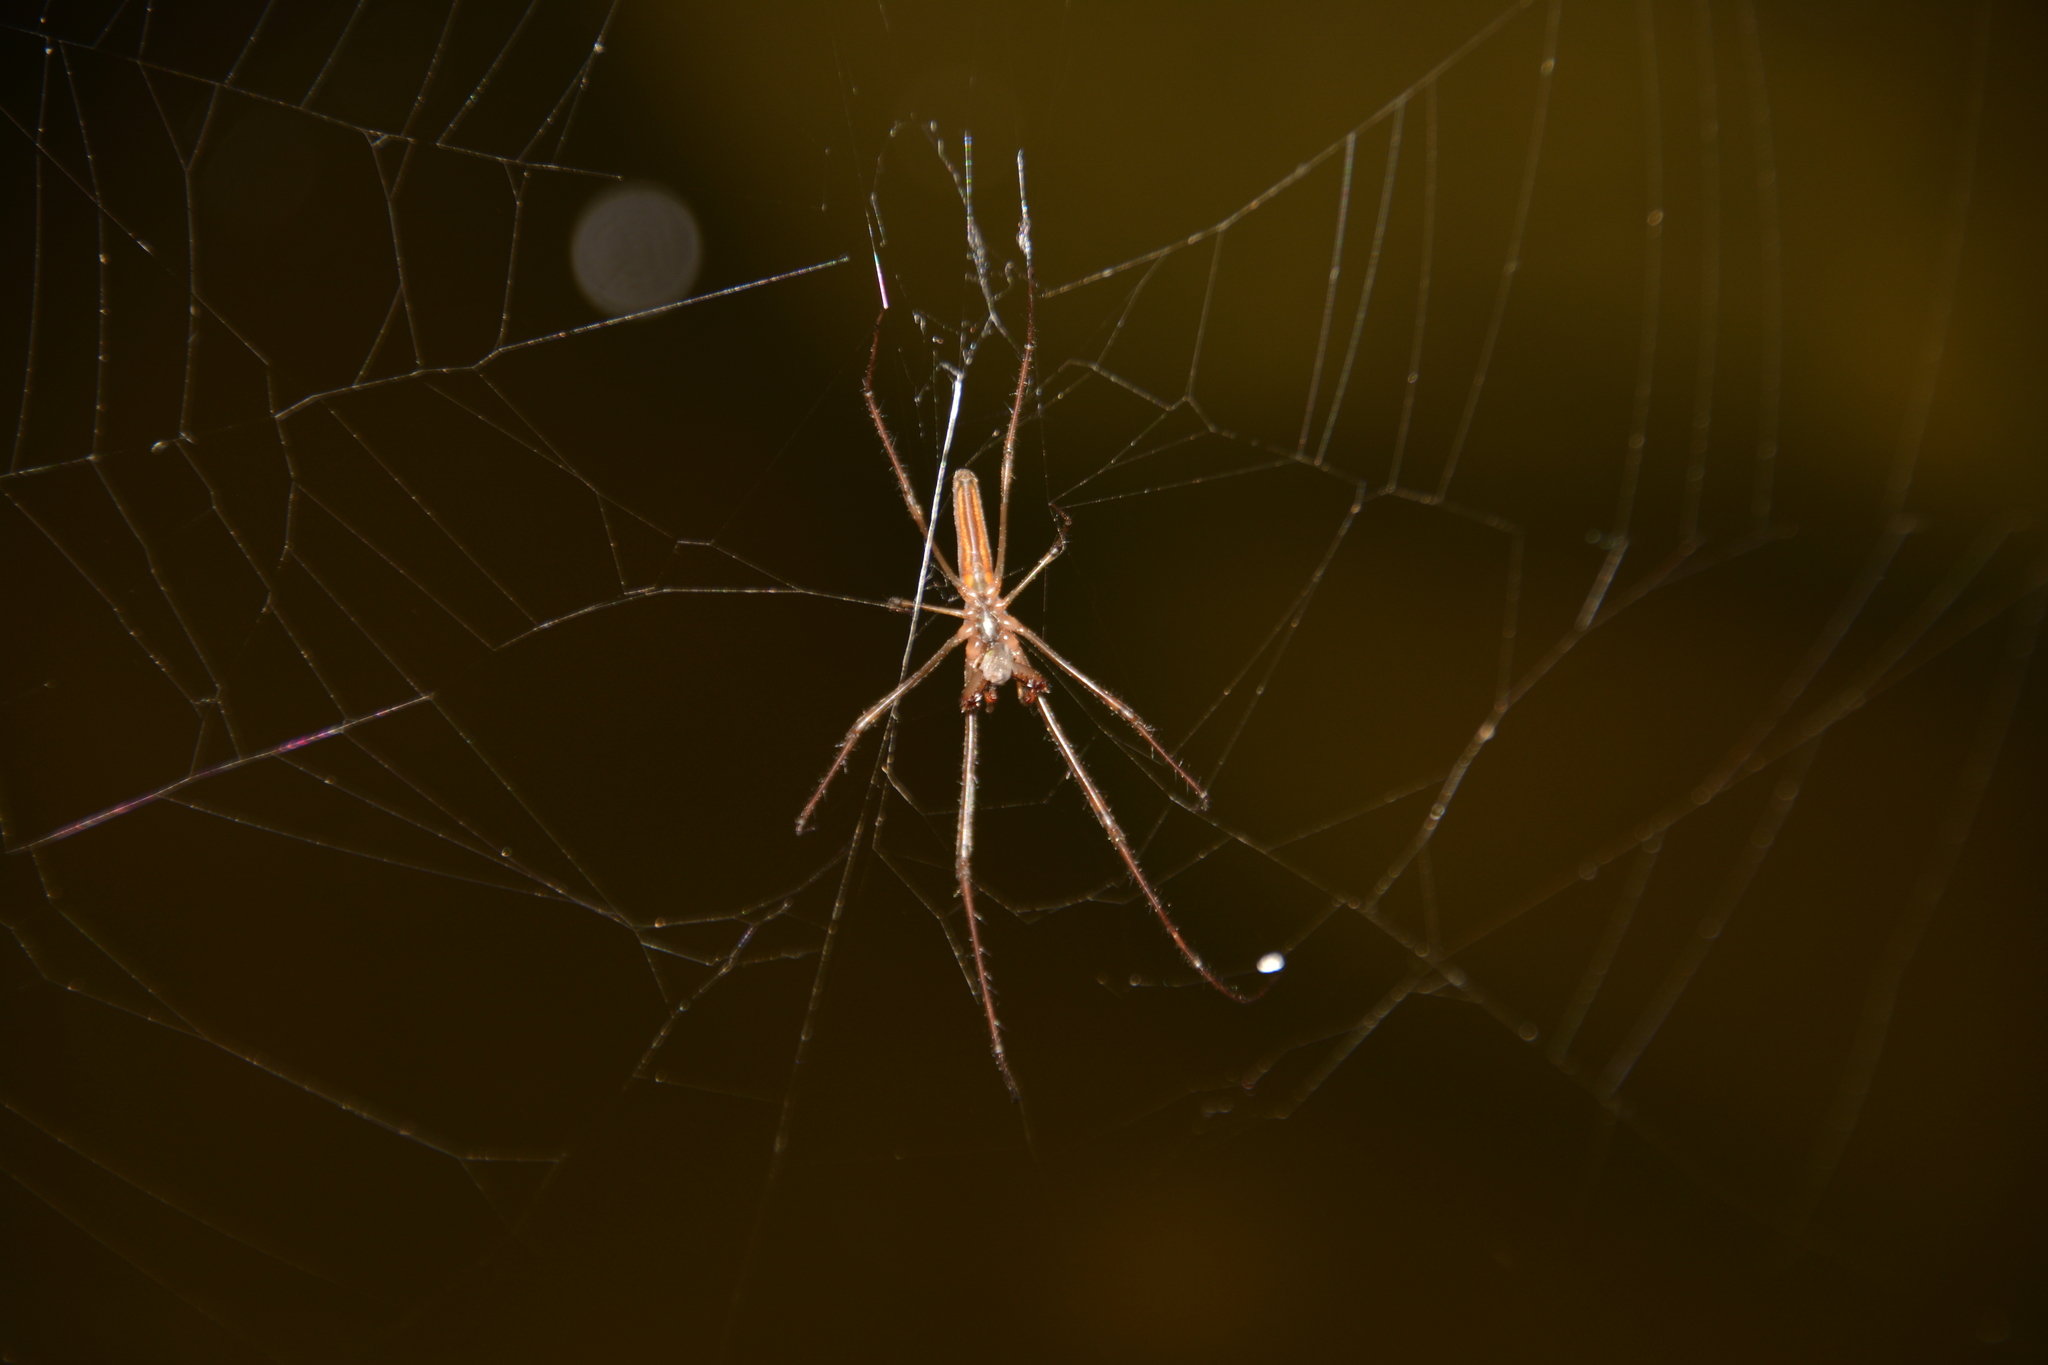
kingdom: Animalia
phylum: Arthropoda
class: Arachnida
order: Araneae
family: Tetragnathidae
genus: Tetragnatha
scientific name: Tetragnatha
